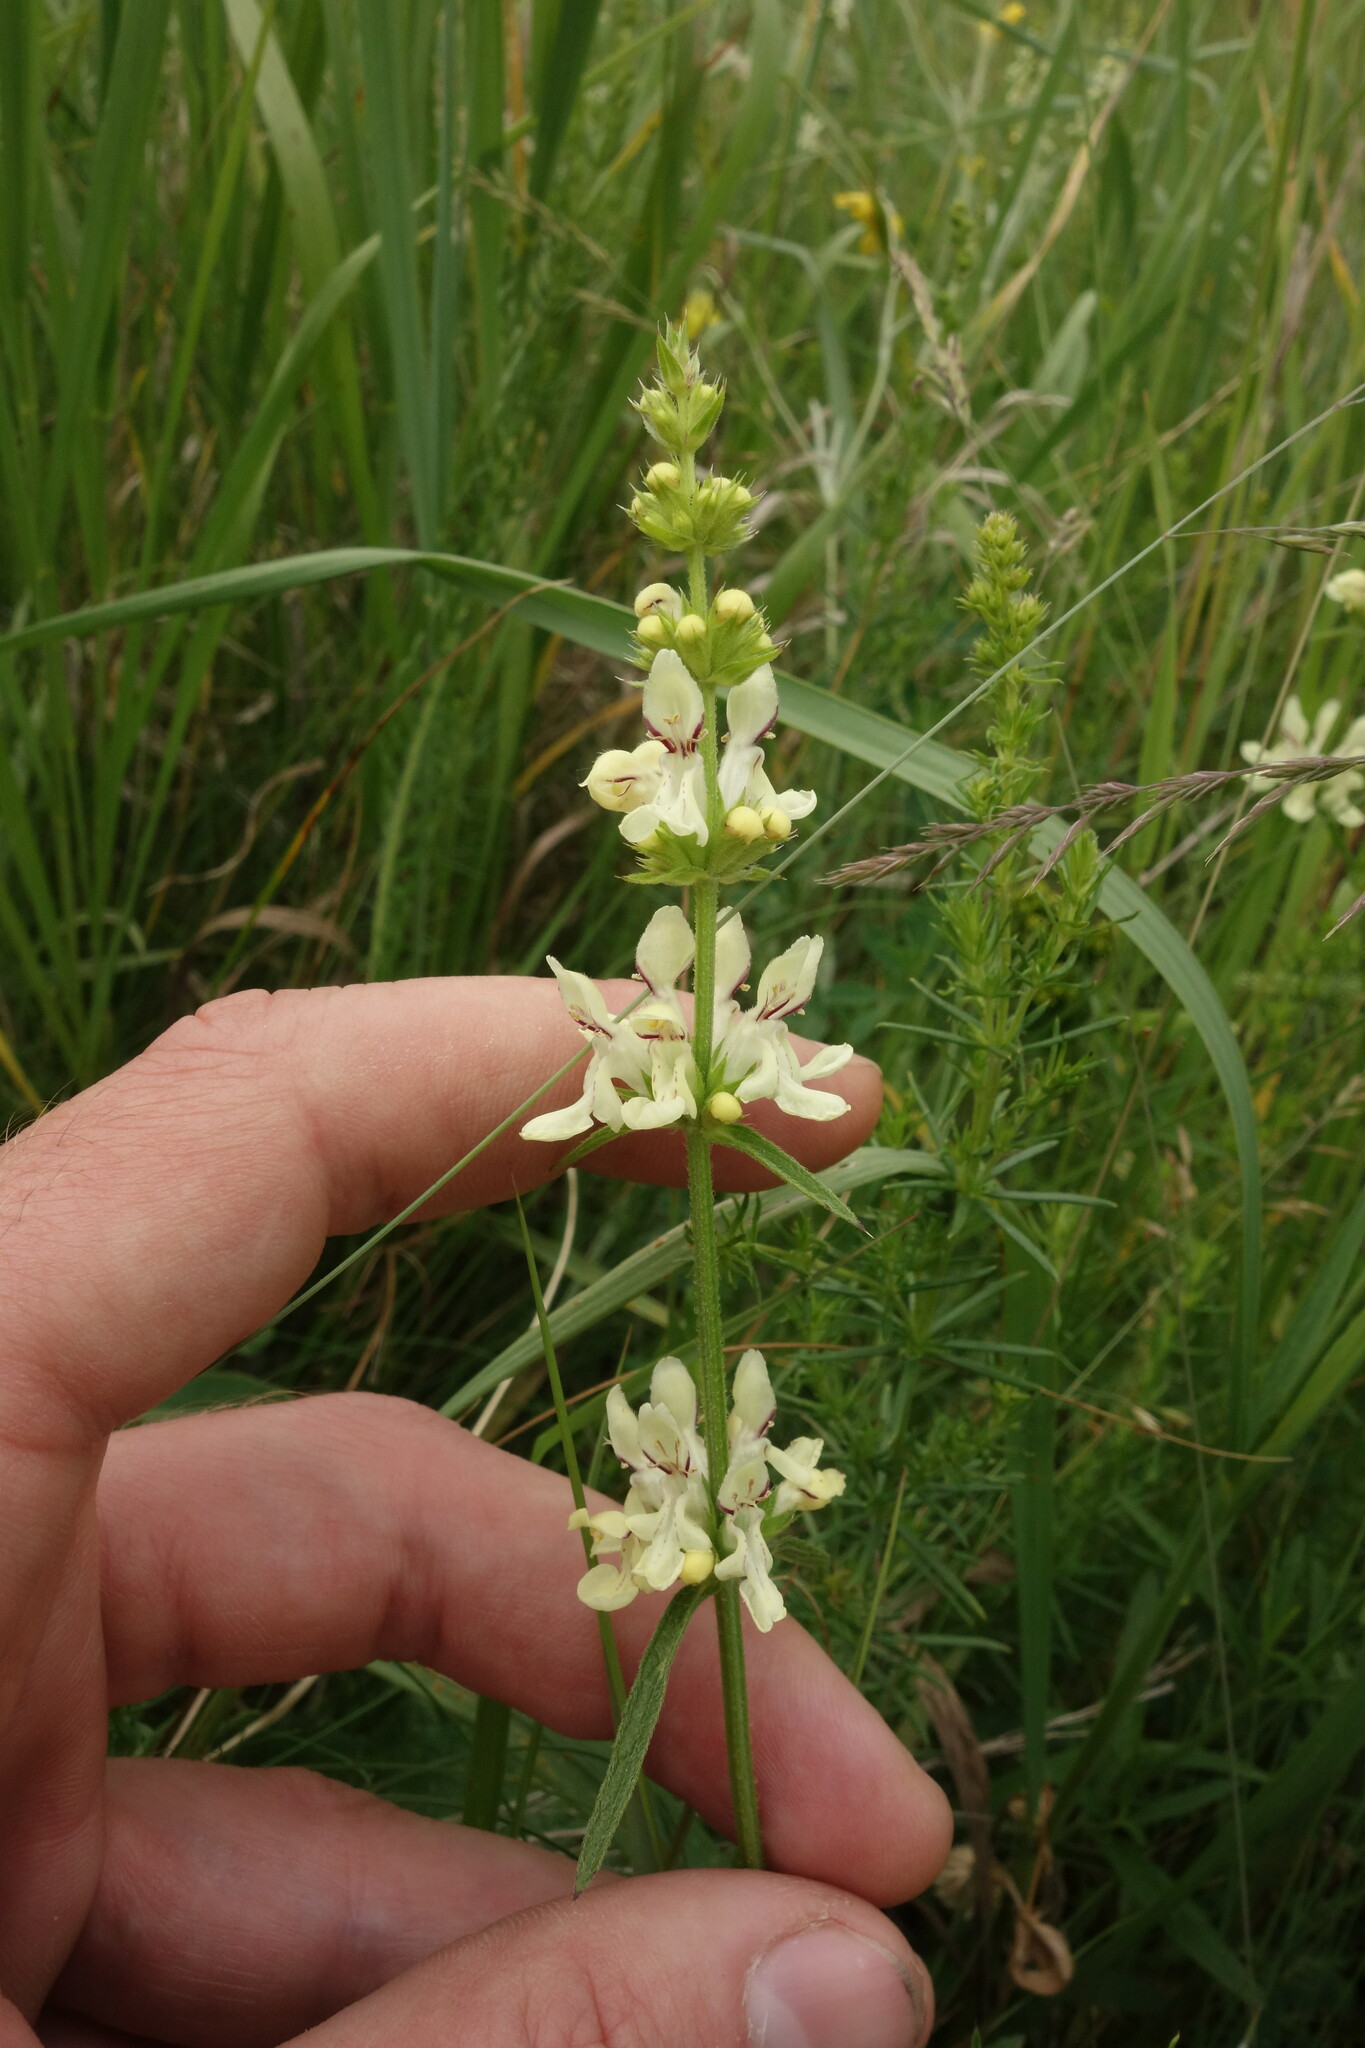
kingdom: Plantae
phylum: Tracheophyta
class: Magnoliopsida
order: Lamiales
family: Lamiaceae
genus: Stachys
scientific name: Stachys recta
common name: Perennial yellow-woundwort
